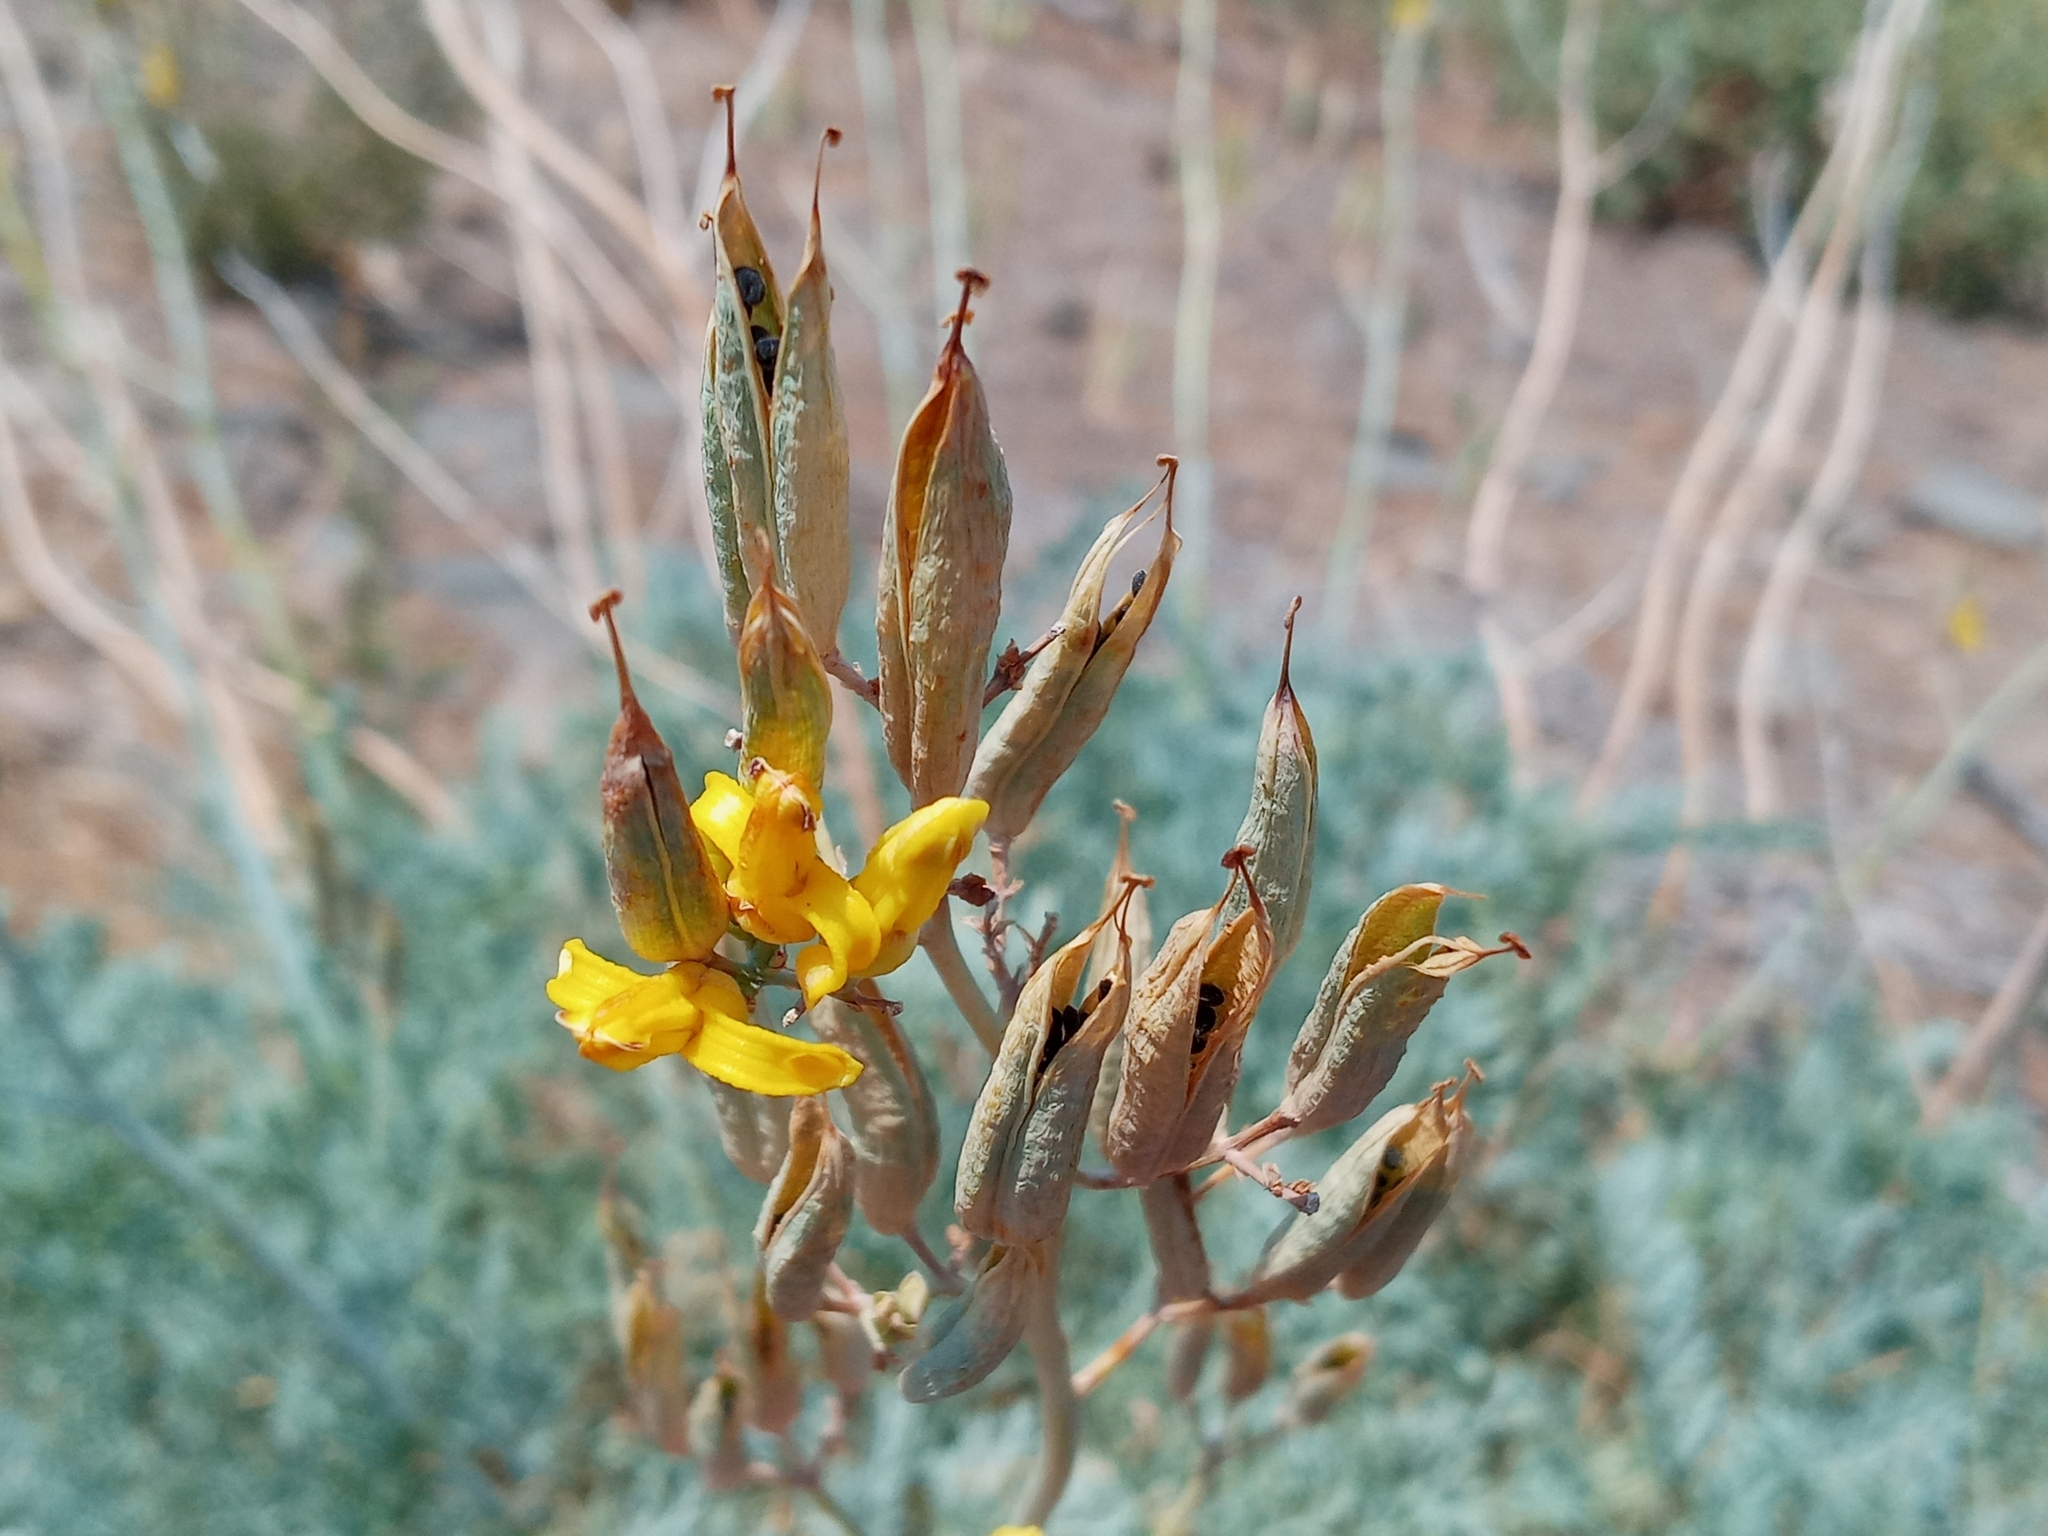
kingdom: Plantae
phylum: Tracheophyta
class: Magnoliopsida
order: Ranunculales
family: Papaveraceae
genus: Ehrendorferia
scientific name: Ehrendorferia chrysantha
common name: Golden eardrops
